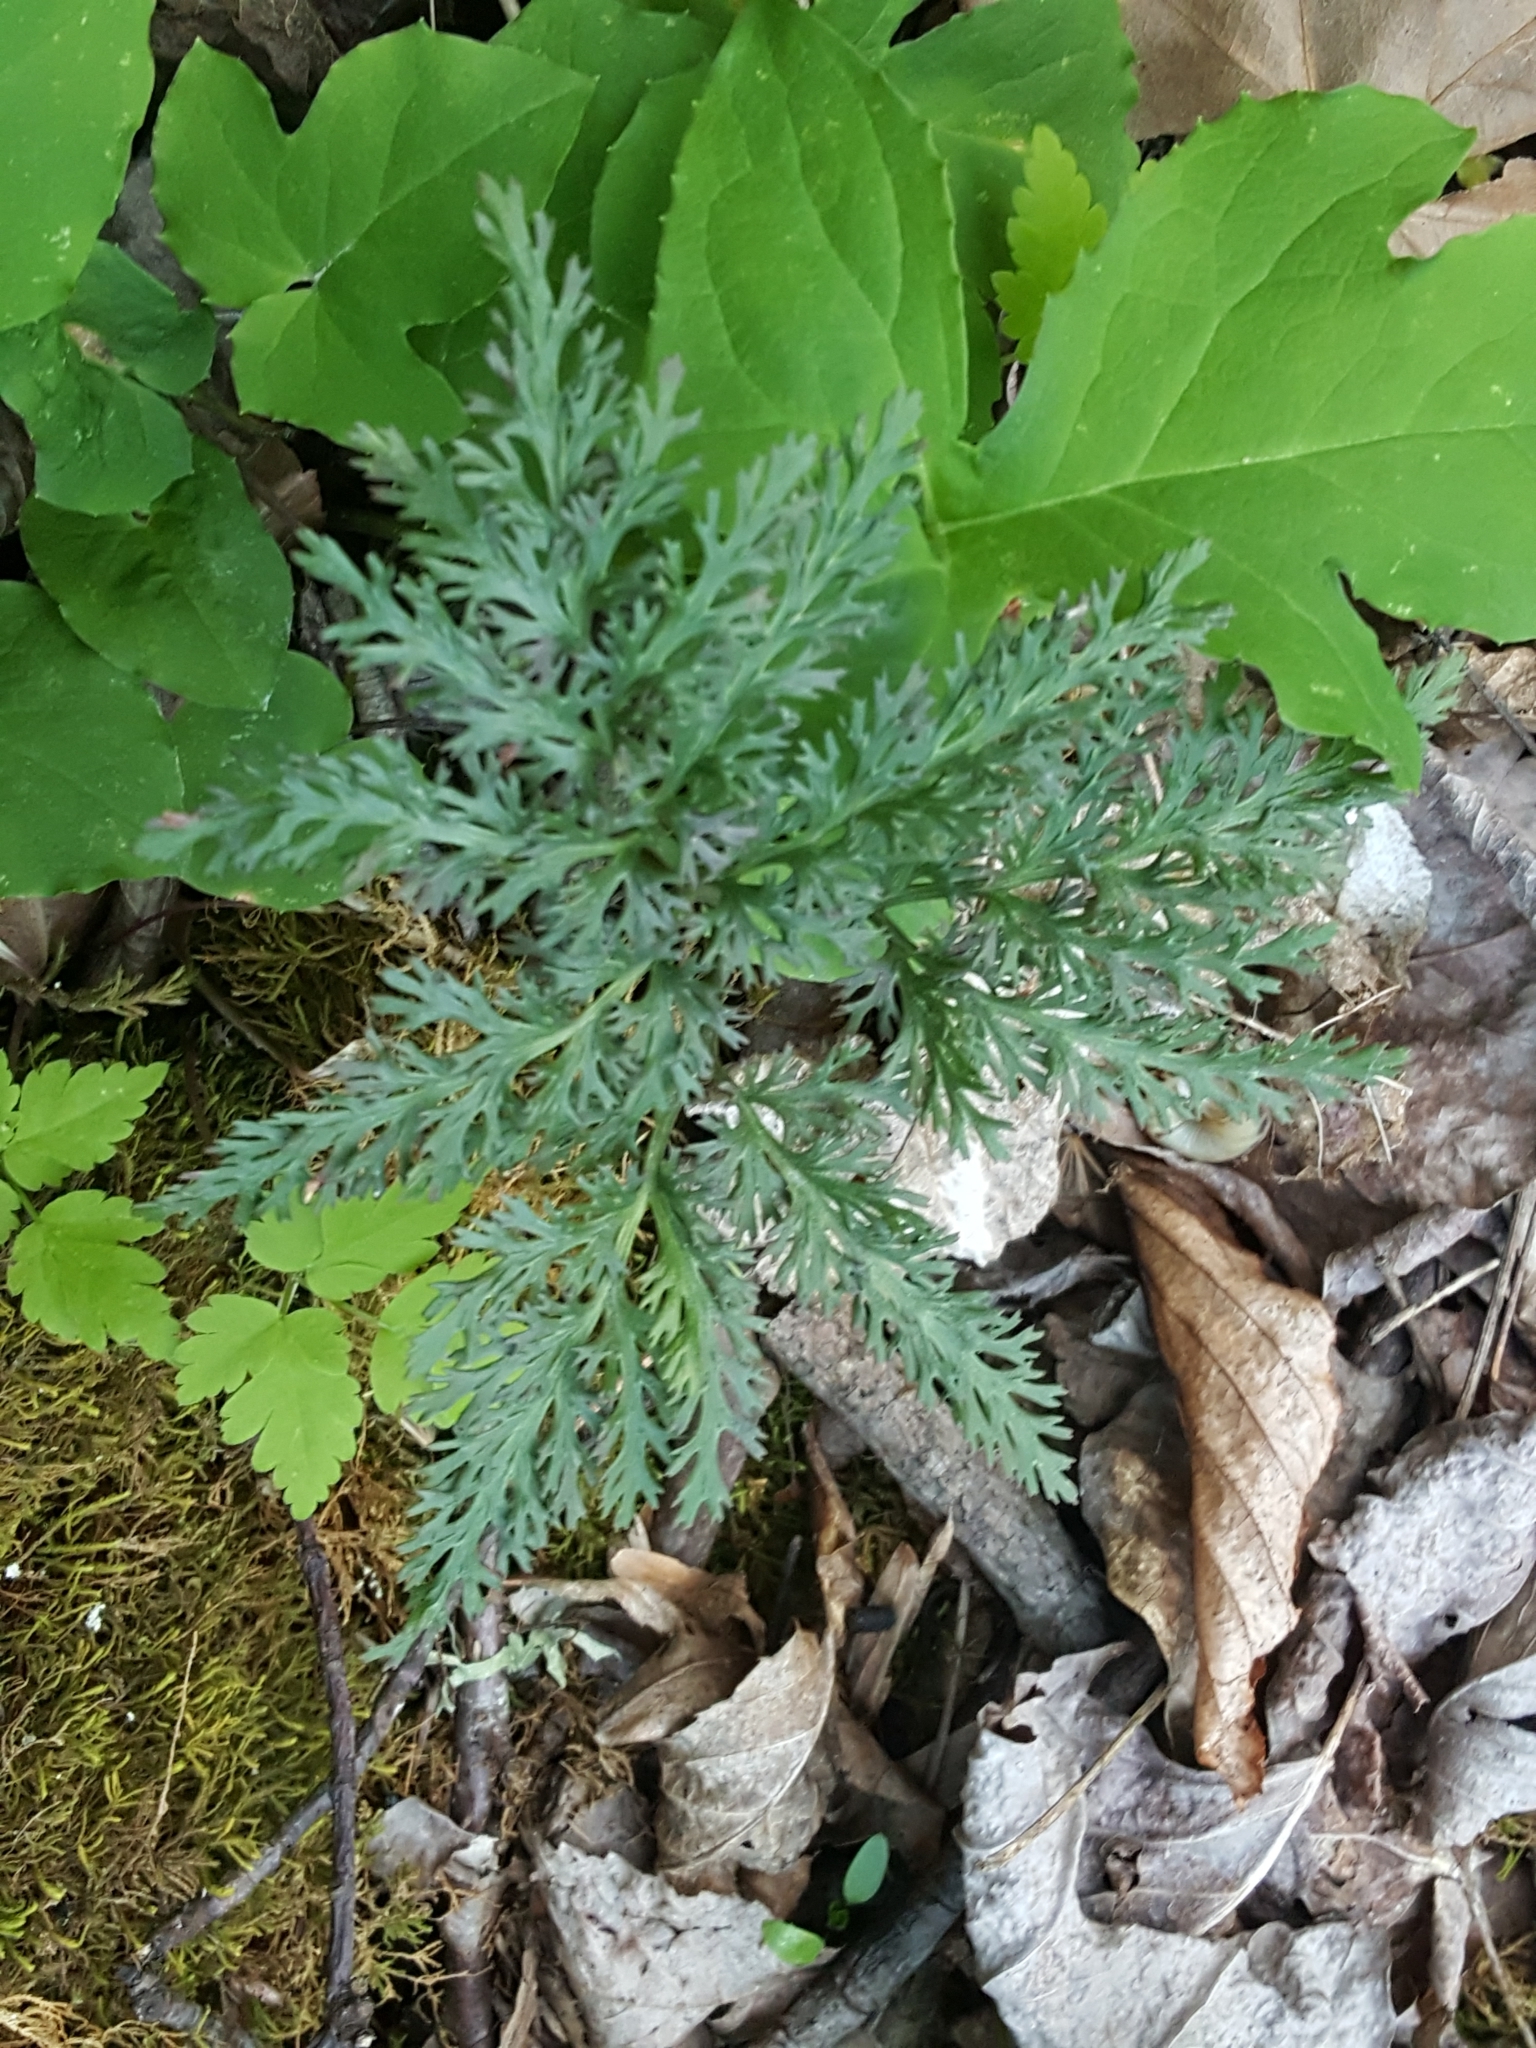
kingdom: Plantae
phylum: Tracheophyta
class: Polypodiopsida
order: Ophioglossales
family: Ophioglossaceae
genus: Sceptridium
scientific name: Sceptridium dissectum
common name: Cut-leaved grapefern
